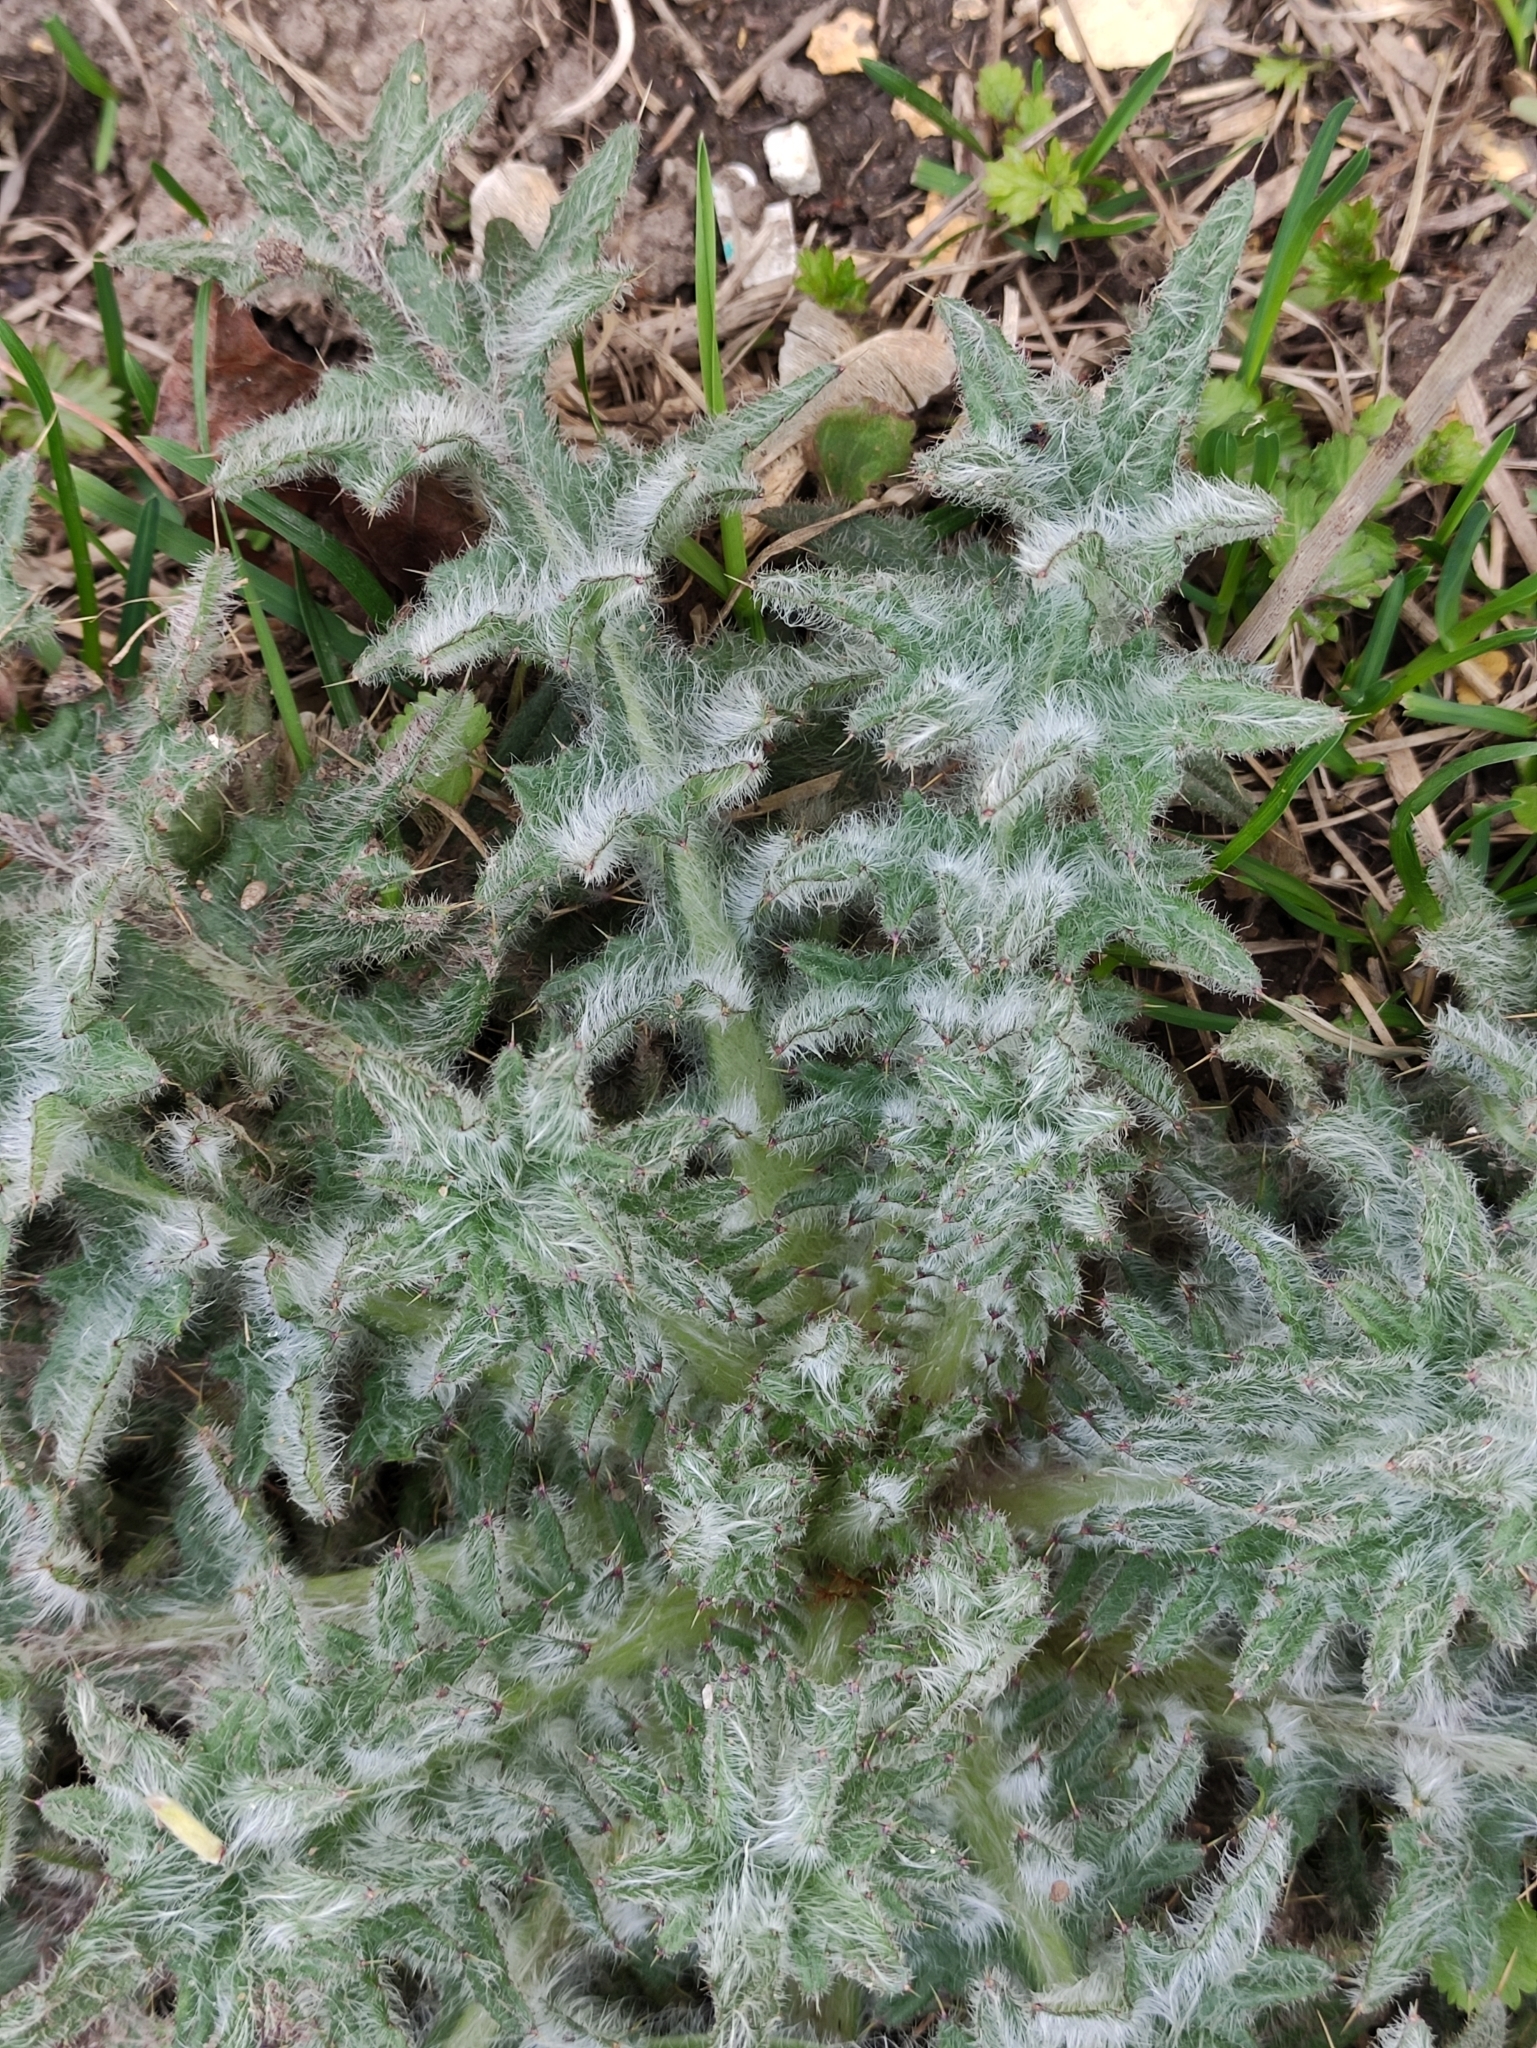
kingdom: Plantae
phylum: Tracheophyta
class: Magnoliopsida
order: Asterales
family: Asteraceae
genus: Cirsium
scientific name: Cirsium vulgare
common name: Bull thistle
